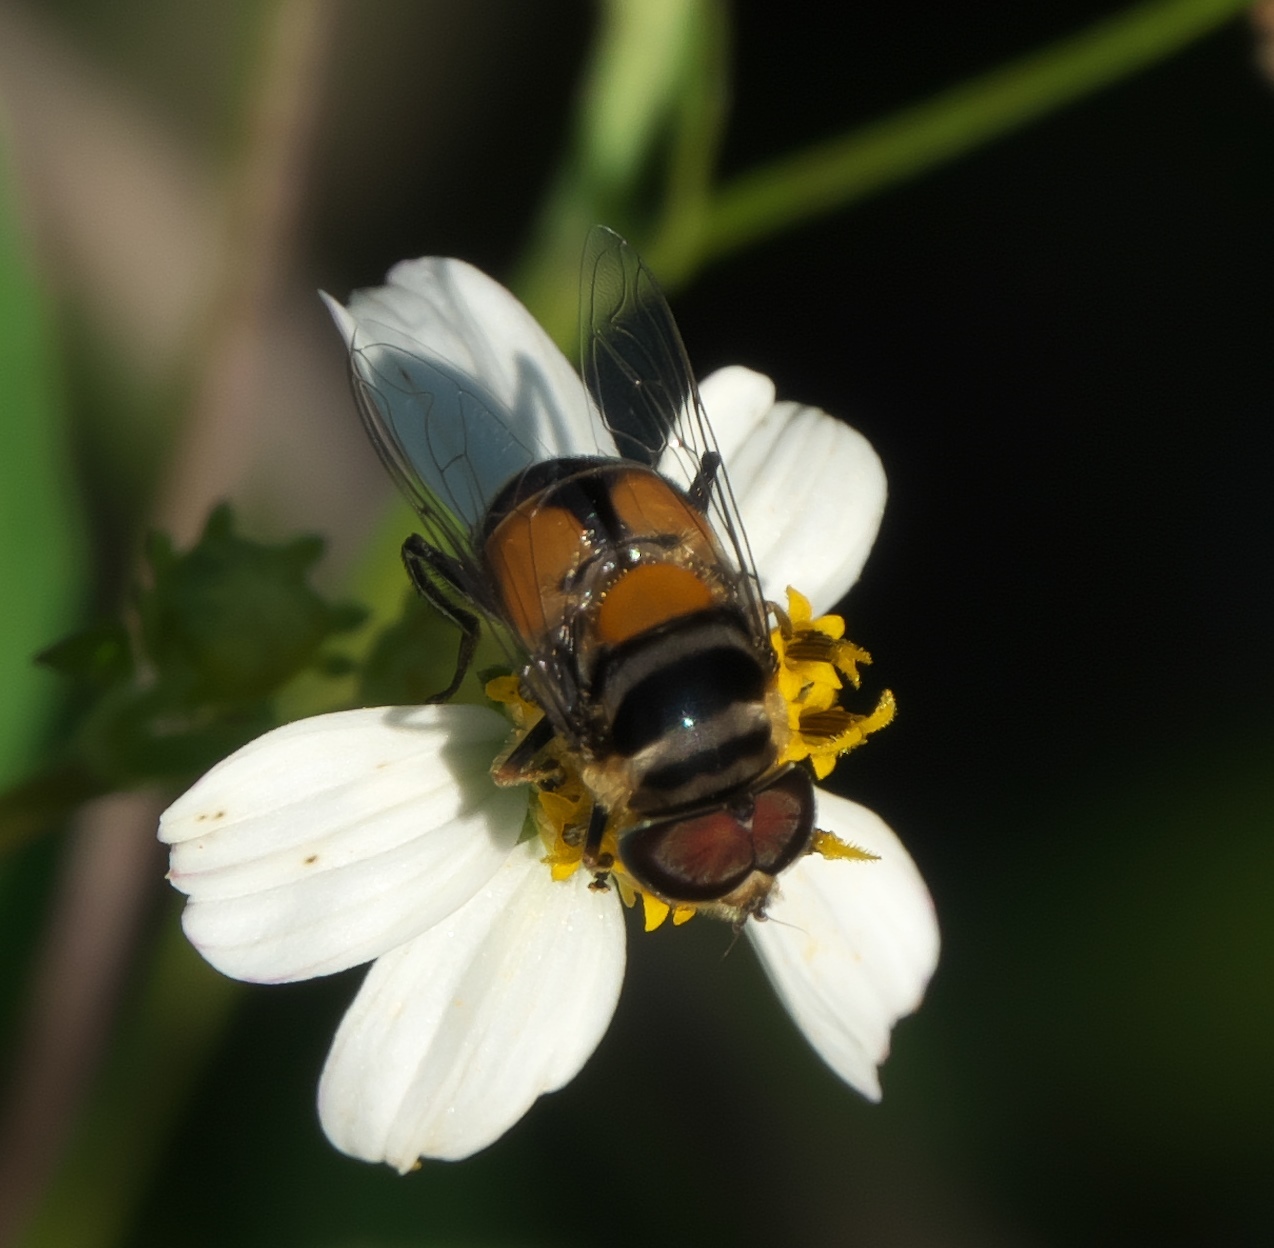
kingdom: Animalia
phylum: Arthropoda
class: Insecta
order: Diptera
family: Syrphidae
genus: Palpada
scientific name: Palpada agrorum
